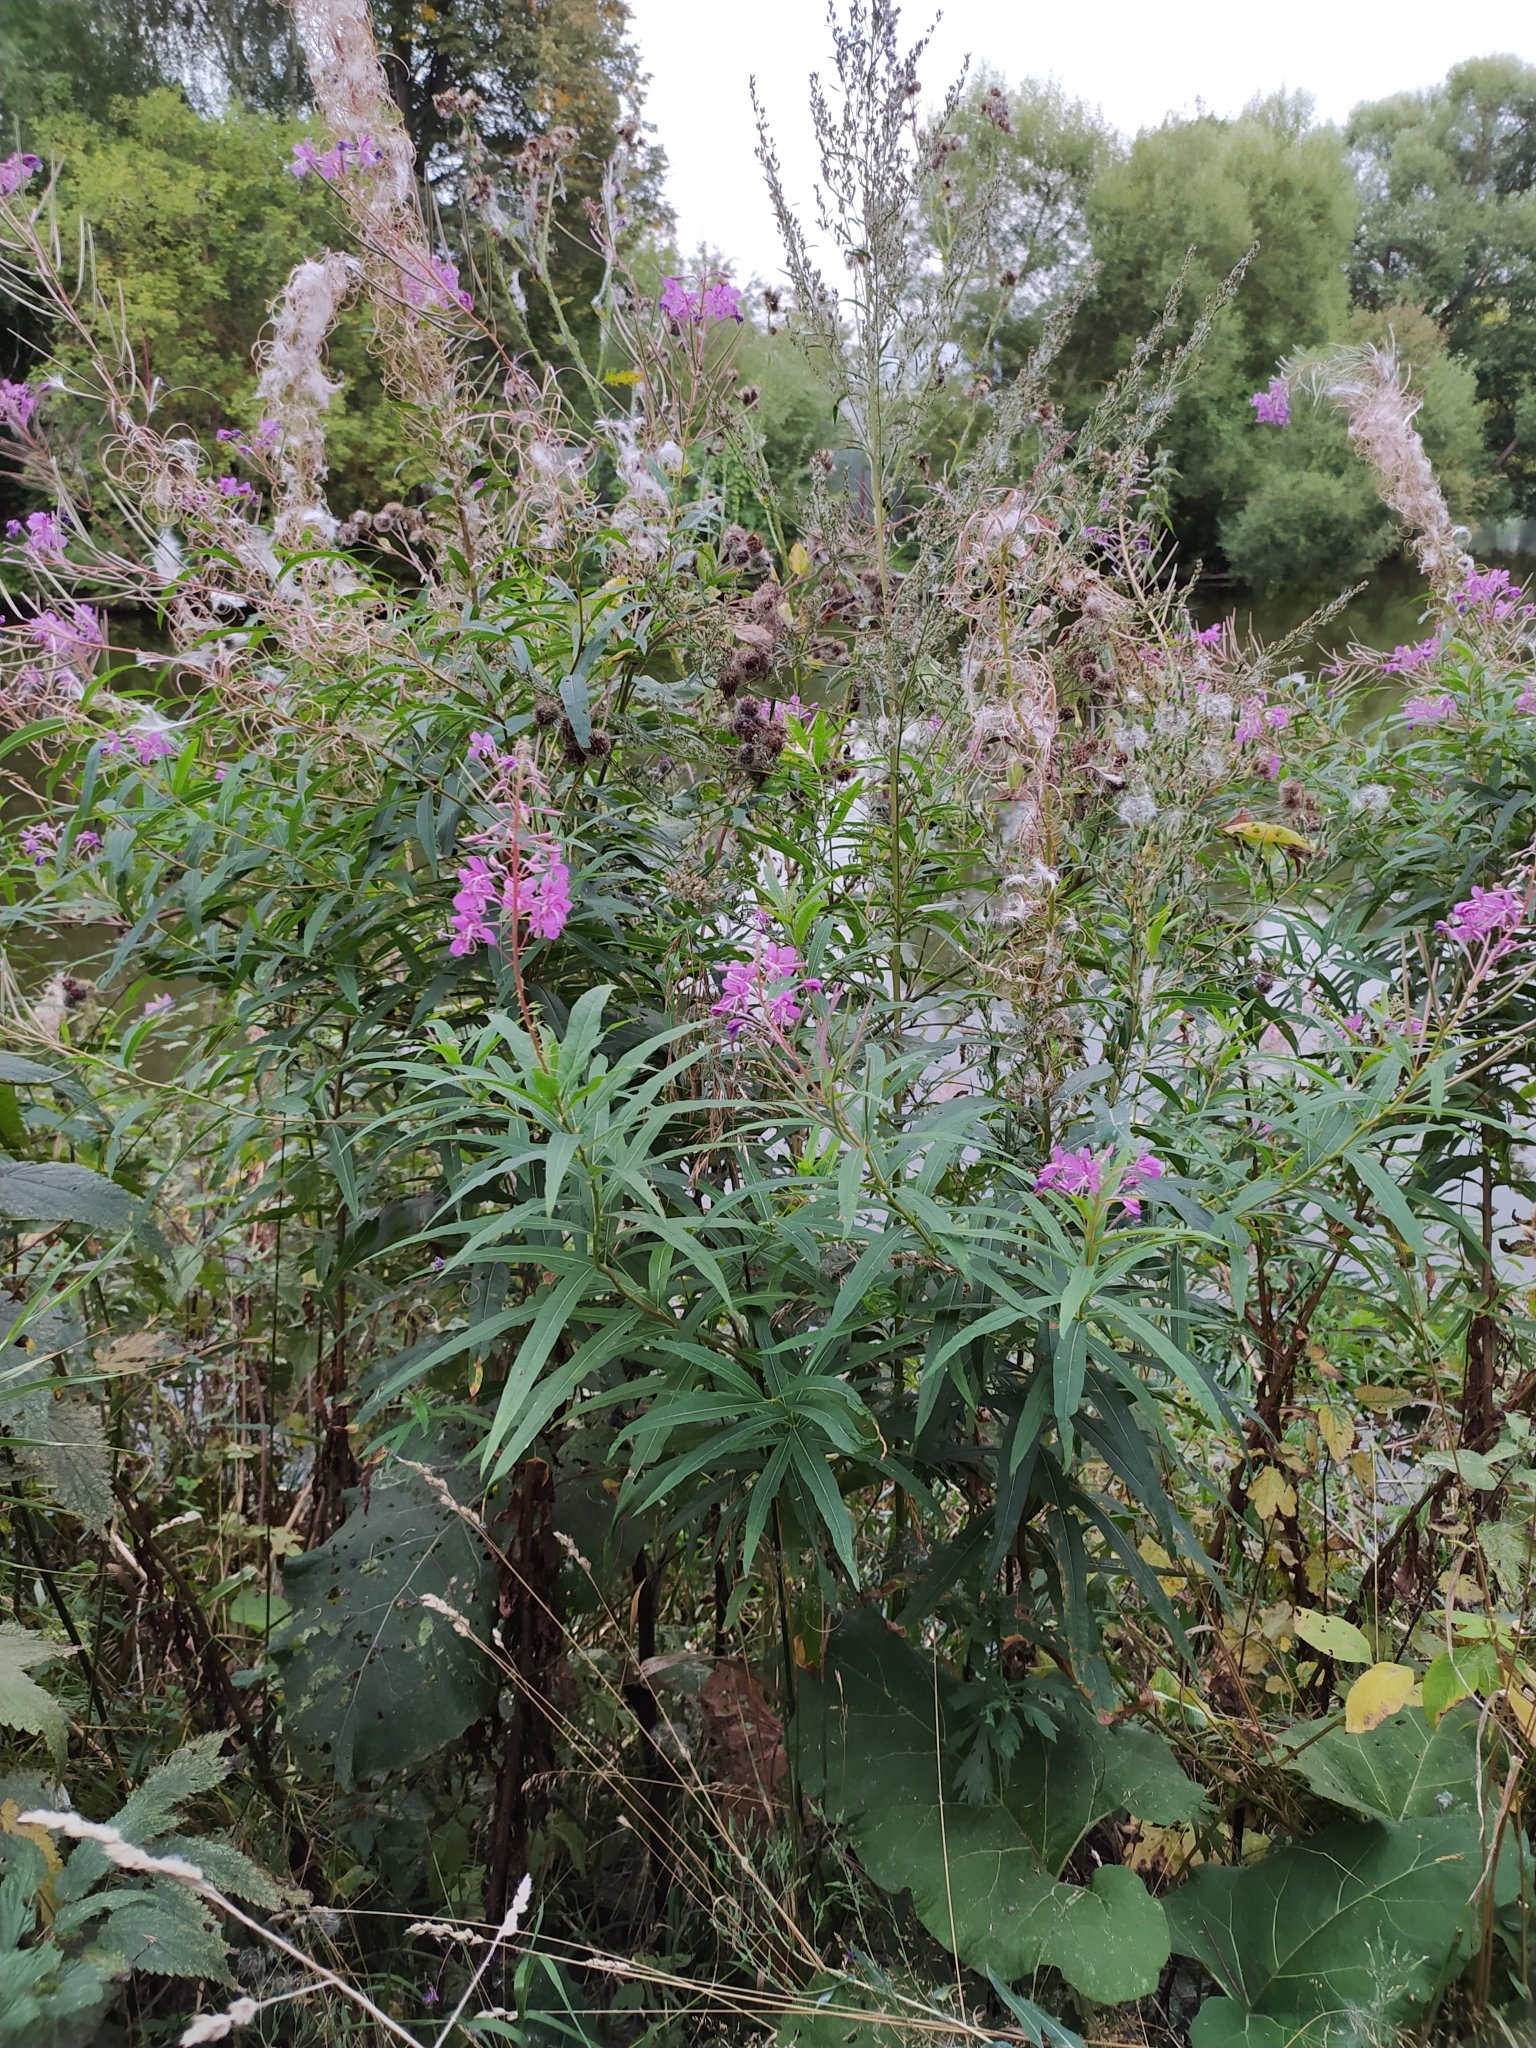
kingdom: Plantae
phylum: Tracheophyta
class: Magnoliopsida
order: Myrtales
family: Onagraceae
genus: Chamaenerion
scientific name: Chamaenerion angustifolium
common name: Fireweed
